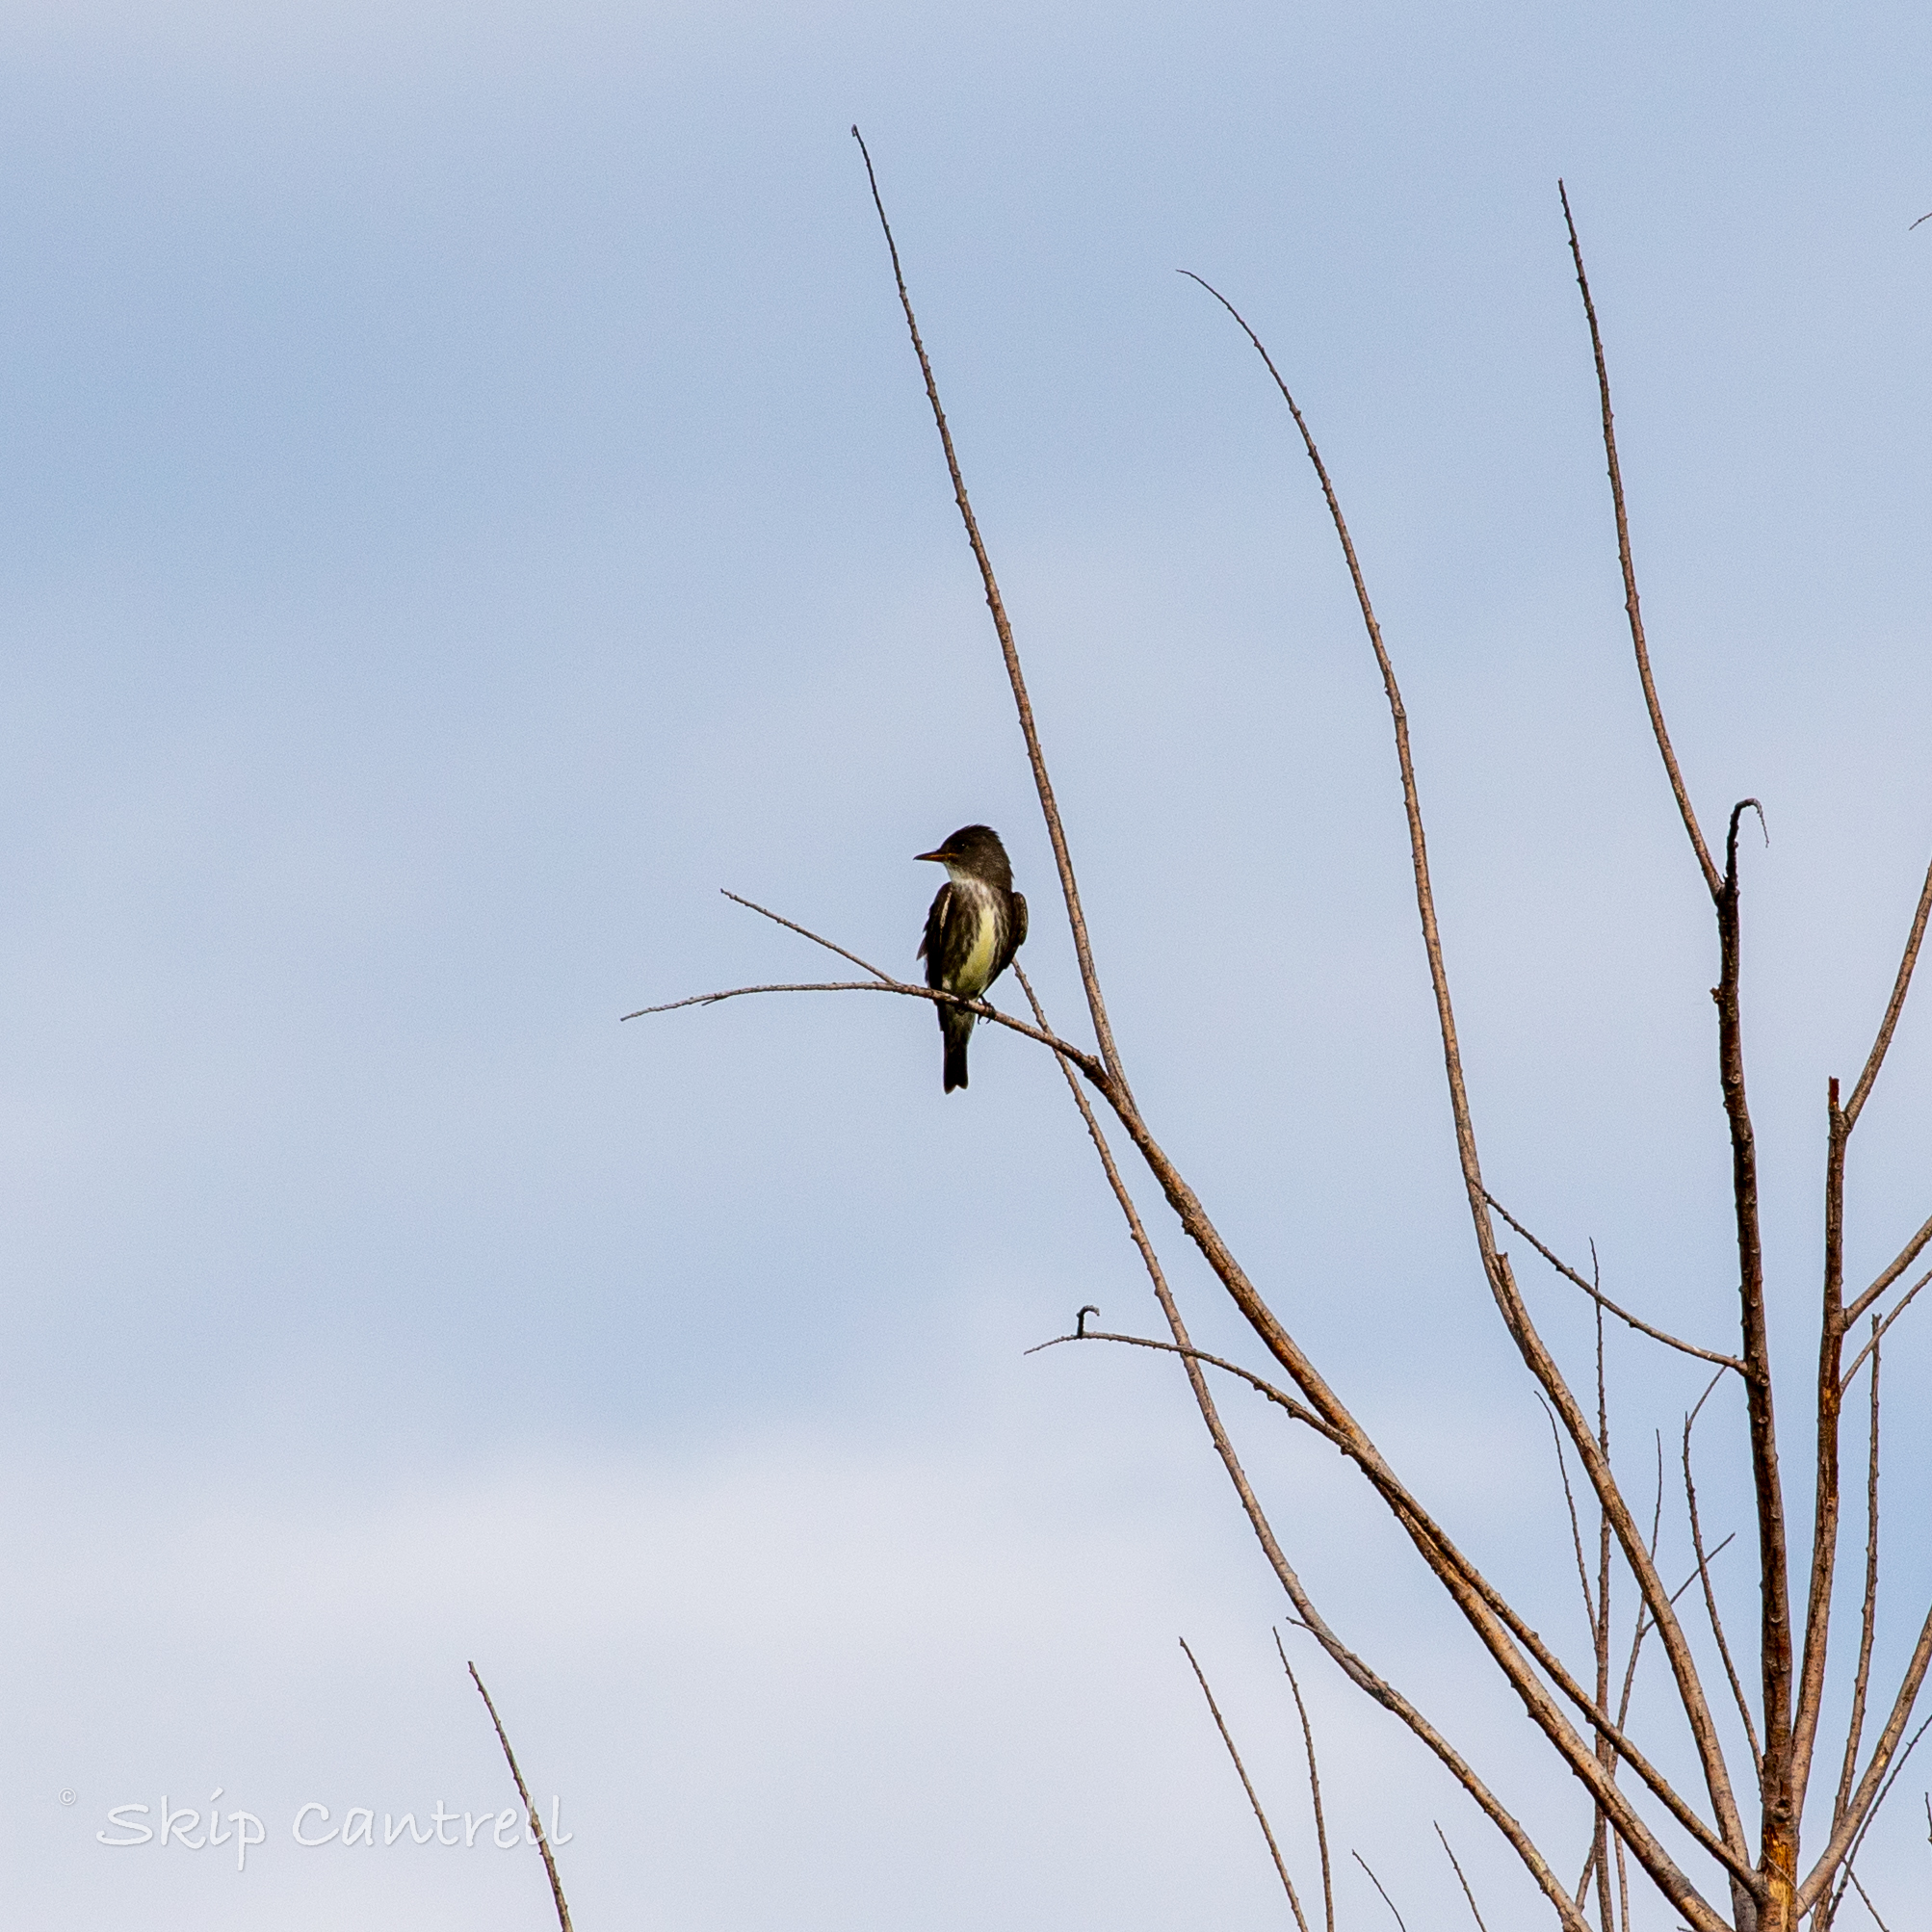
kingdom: Animalia
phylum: Chordata
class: Aves
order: Passeriformes
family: Tyrannidae
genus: Contopus
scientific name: Contopus cooperi
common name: Olive-sided flycatcher
